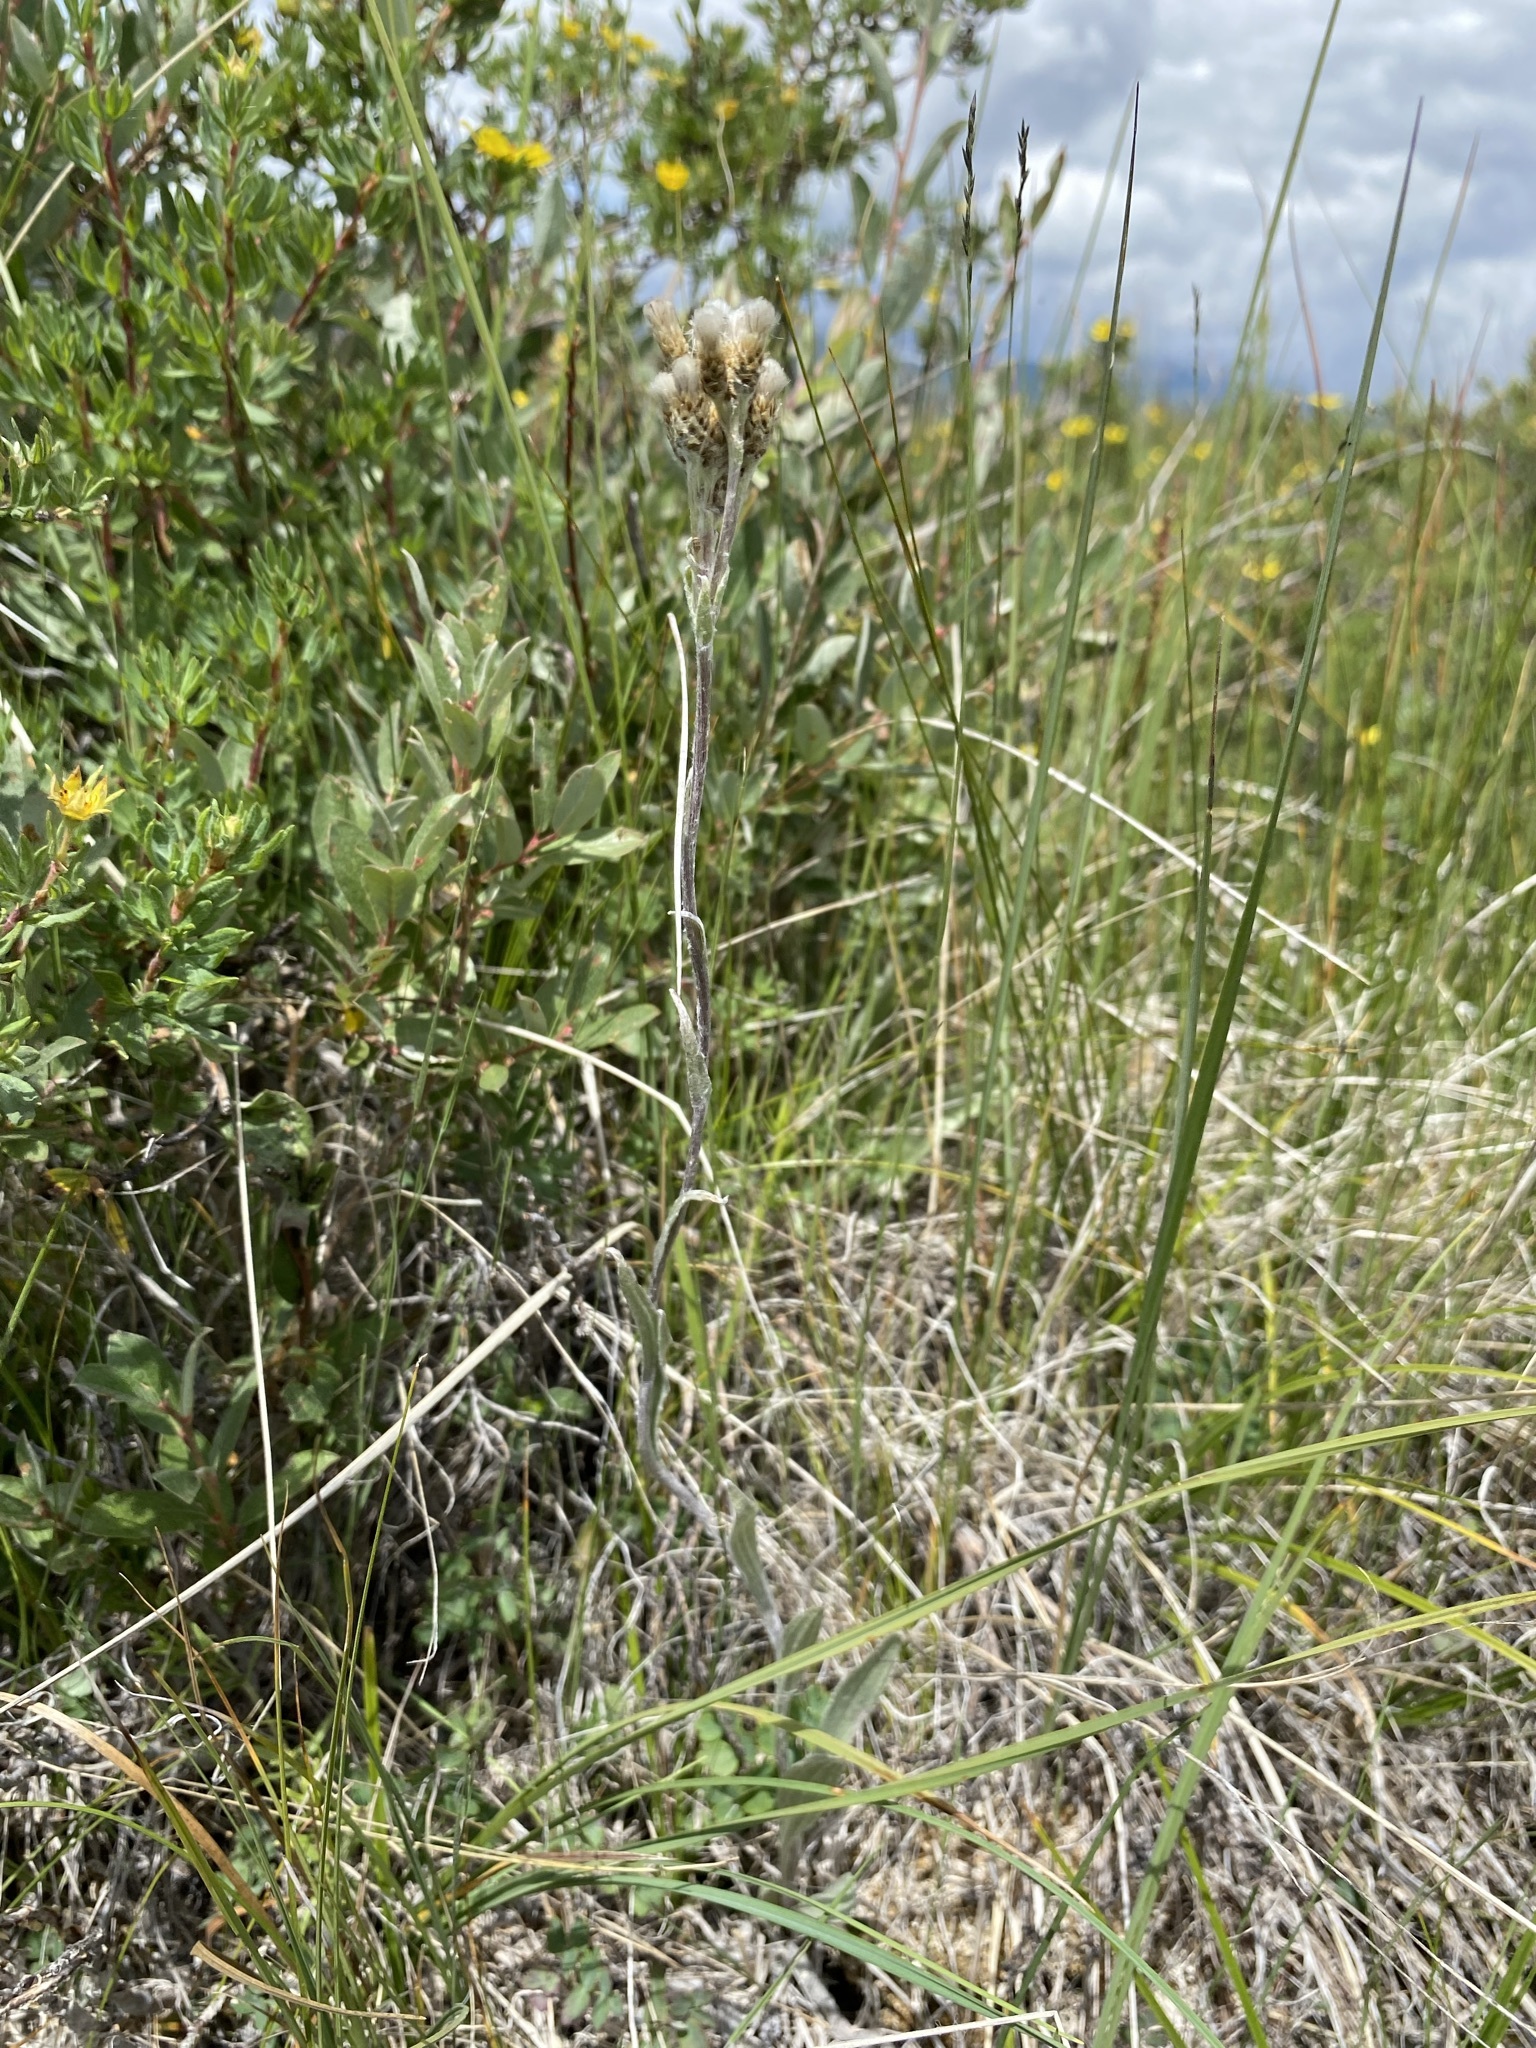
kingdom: Plantae
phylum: Tracheophyta
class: Magnoliopsida
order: Asterales
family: Asteraceae
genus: Antennaria
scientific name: Antennaria pulcherrima
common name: Handsome pussytoes
